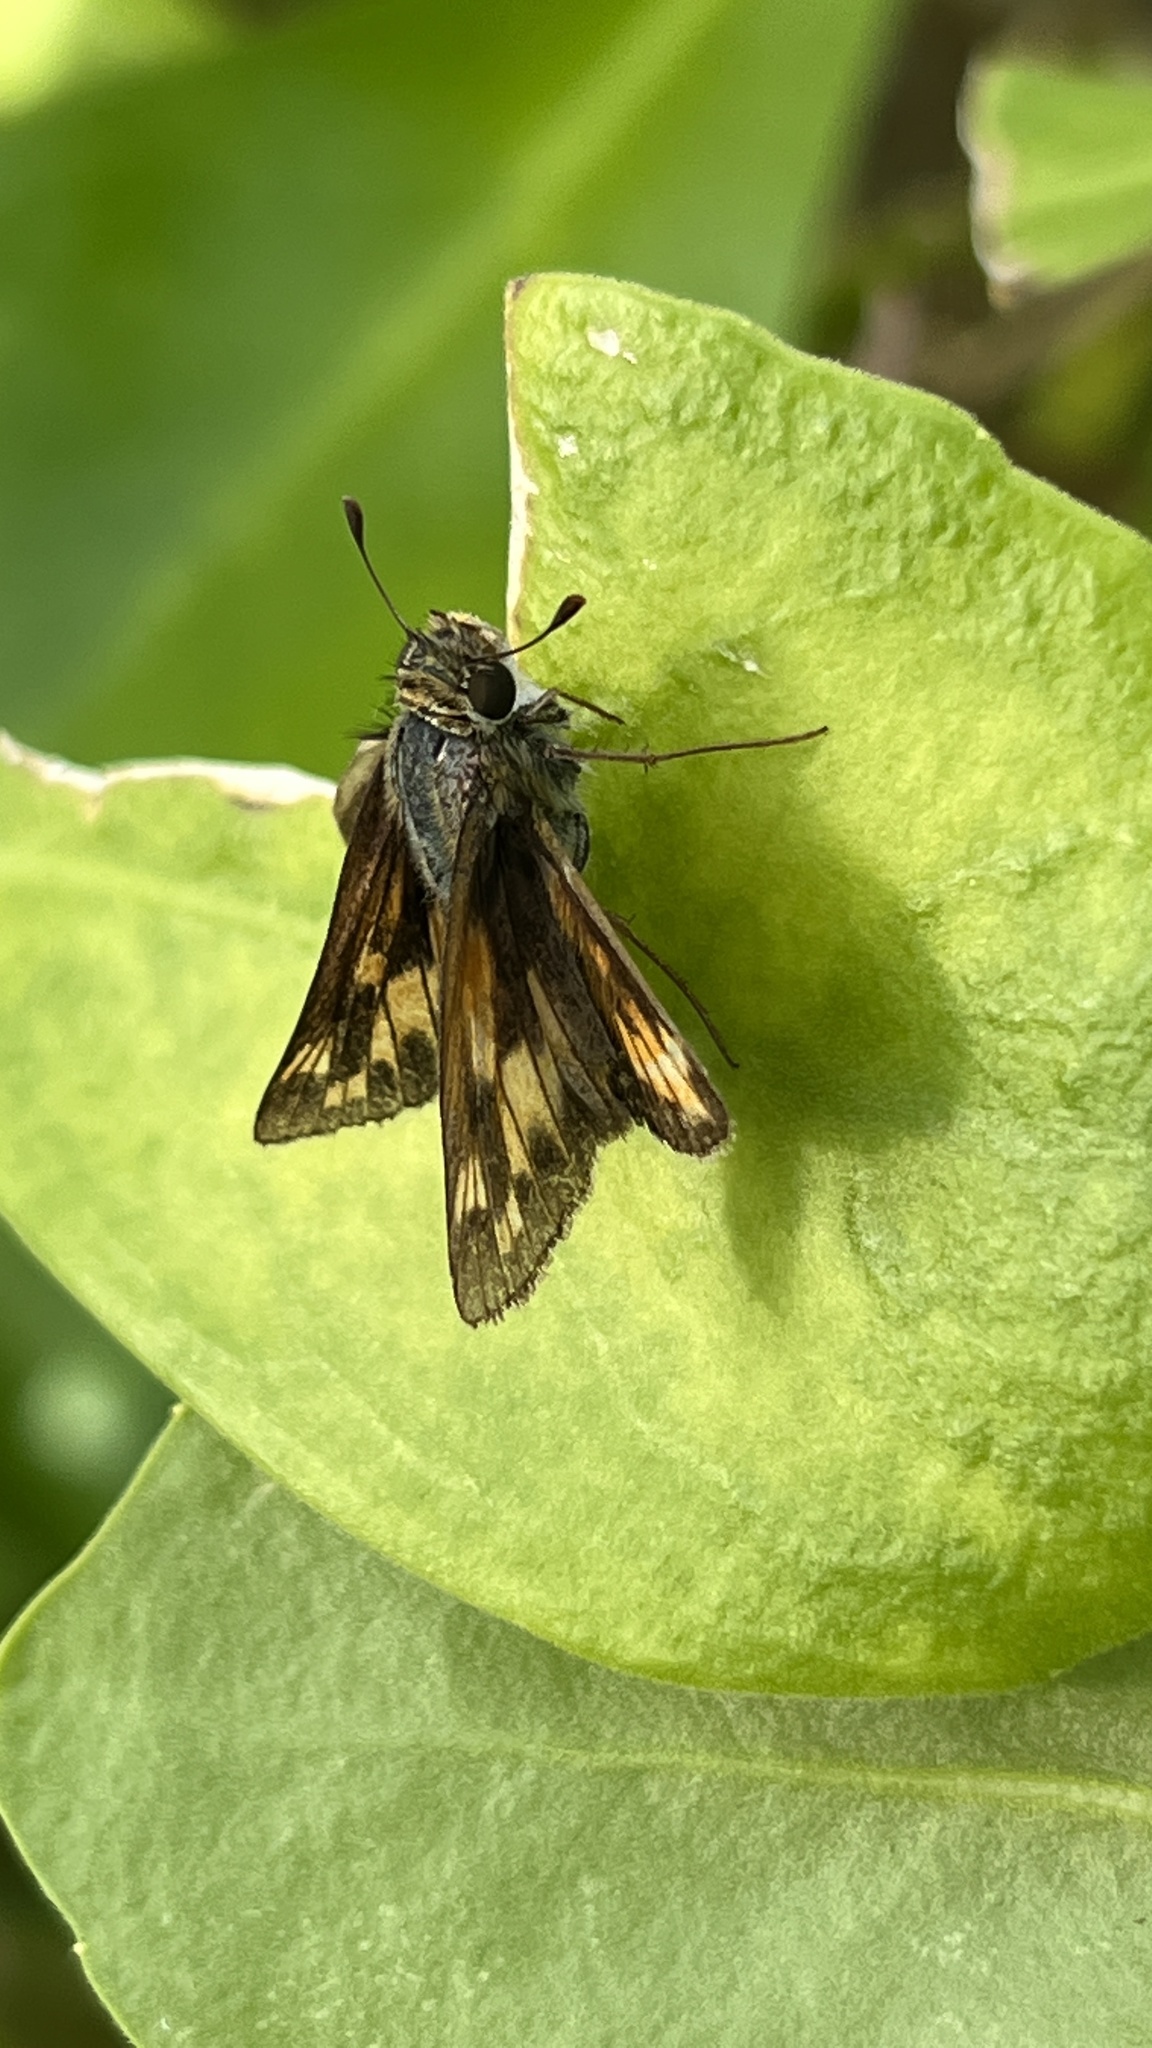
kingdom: Animalia
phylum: Arthropoda
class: Insecta
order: Lepidoptera
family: Hesperiidae
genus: Hylephila
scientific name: Hylephila phyleus
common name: Fiery skipper
